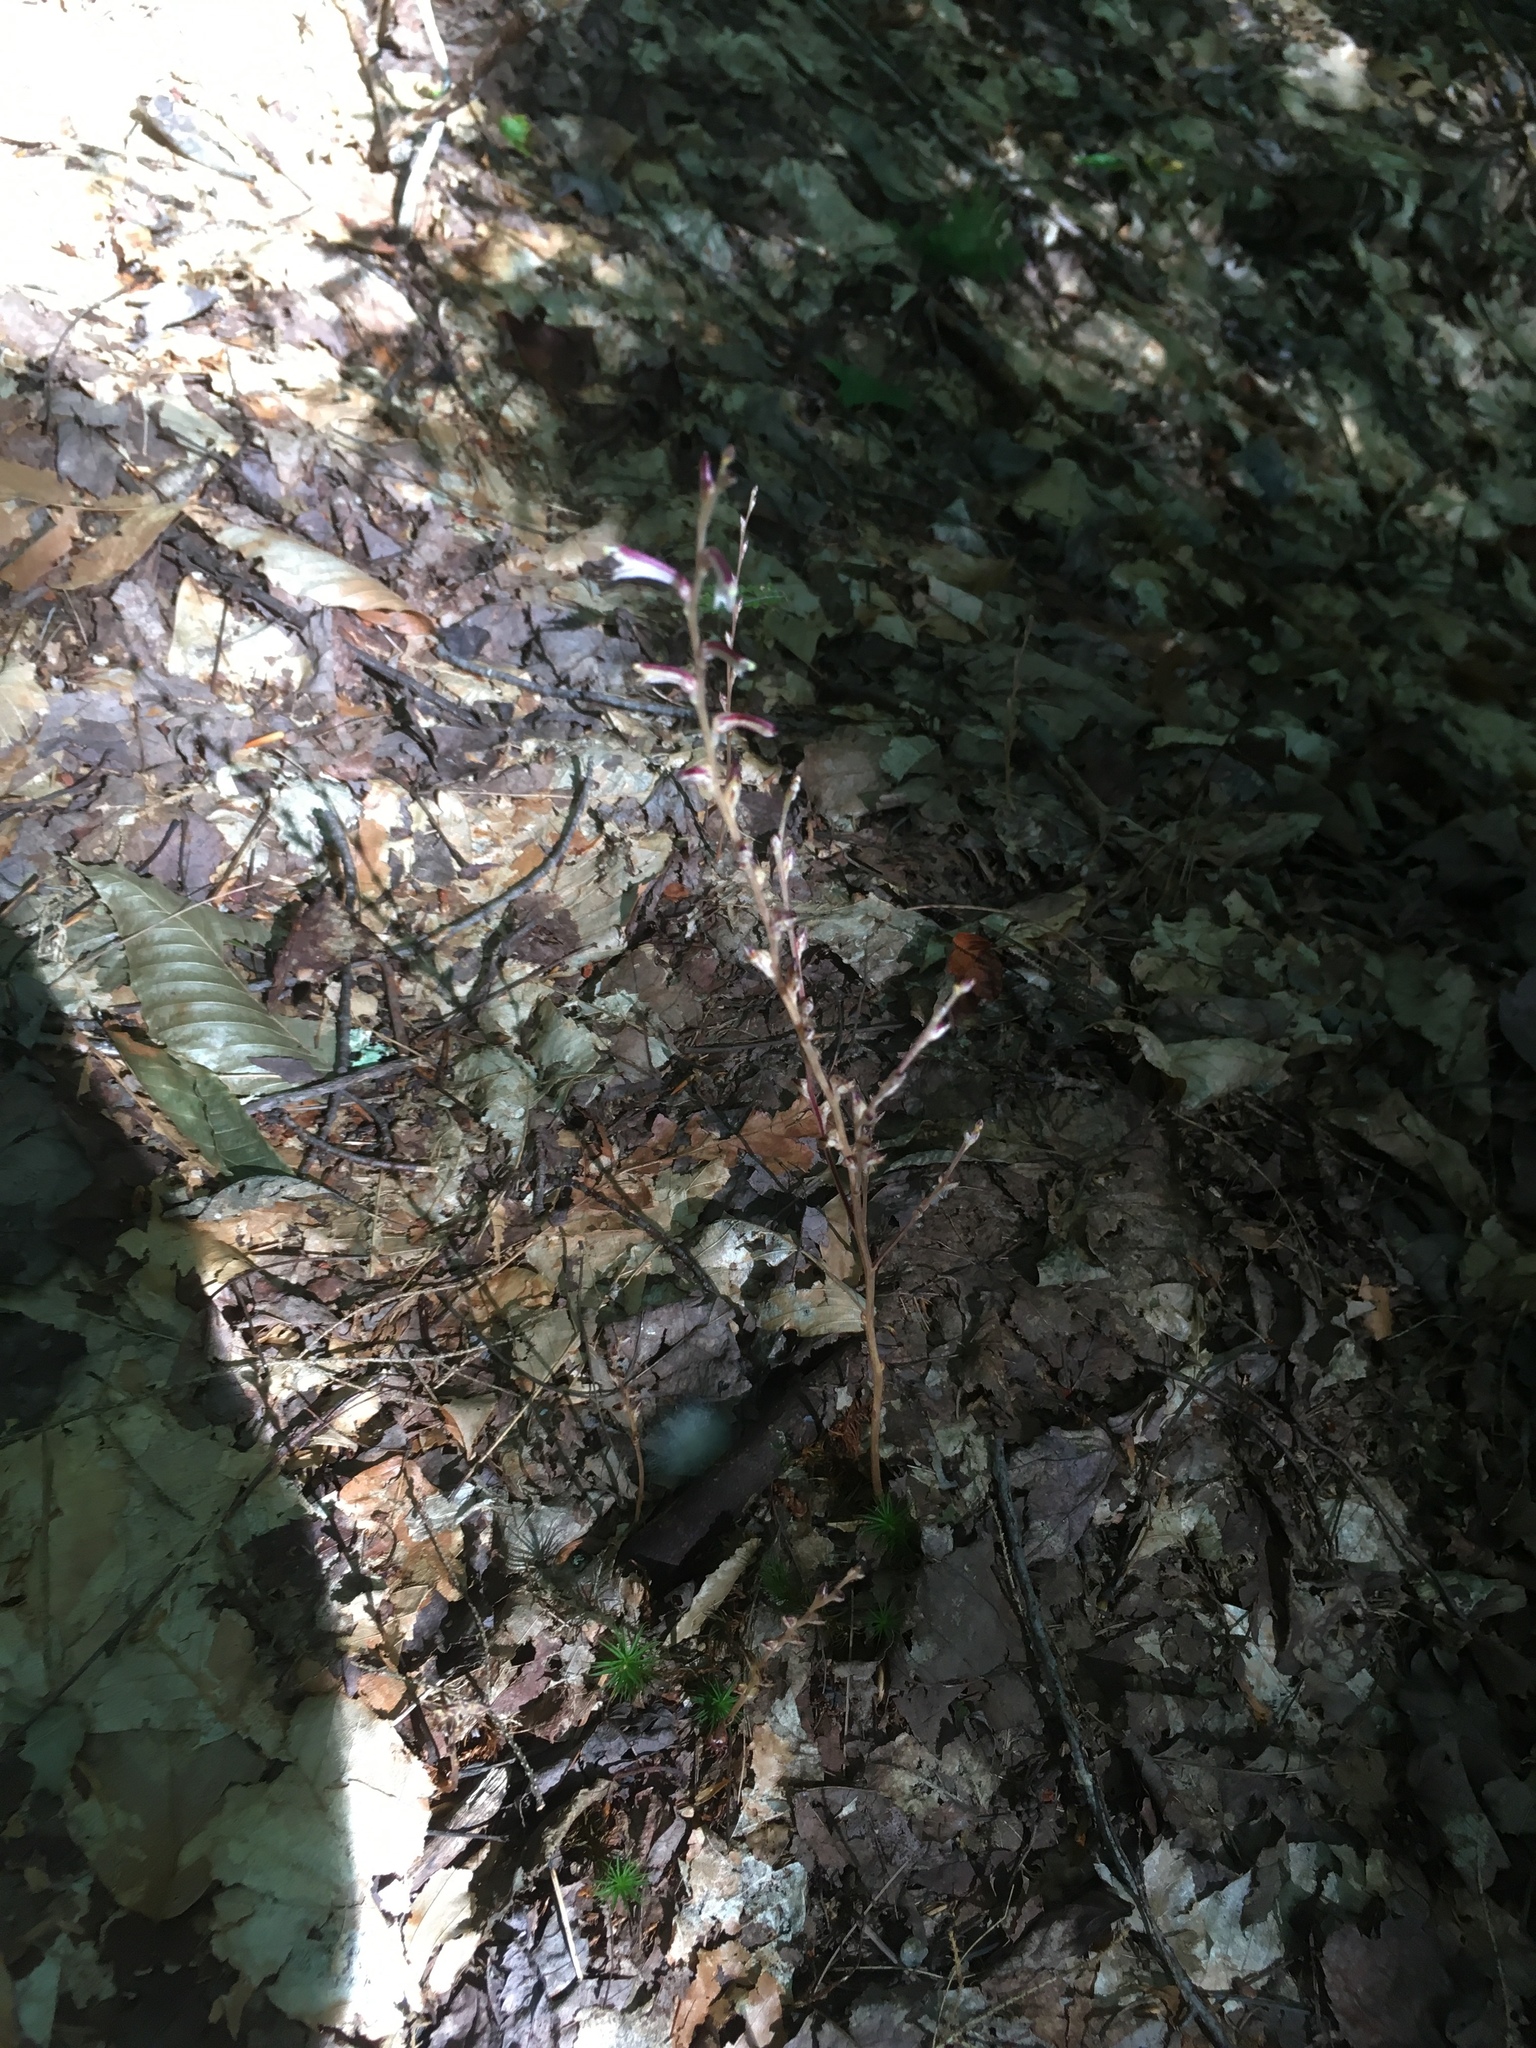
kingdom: Plantae
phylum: Tracheophyta
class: Magnoliopsida
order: Lamiales
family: Orobanchaceae
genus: Epifagus
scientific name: Epifagus virginiana
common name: Beechdrops
